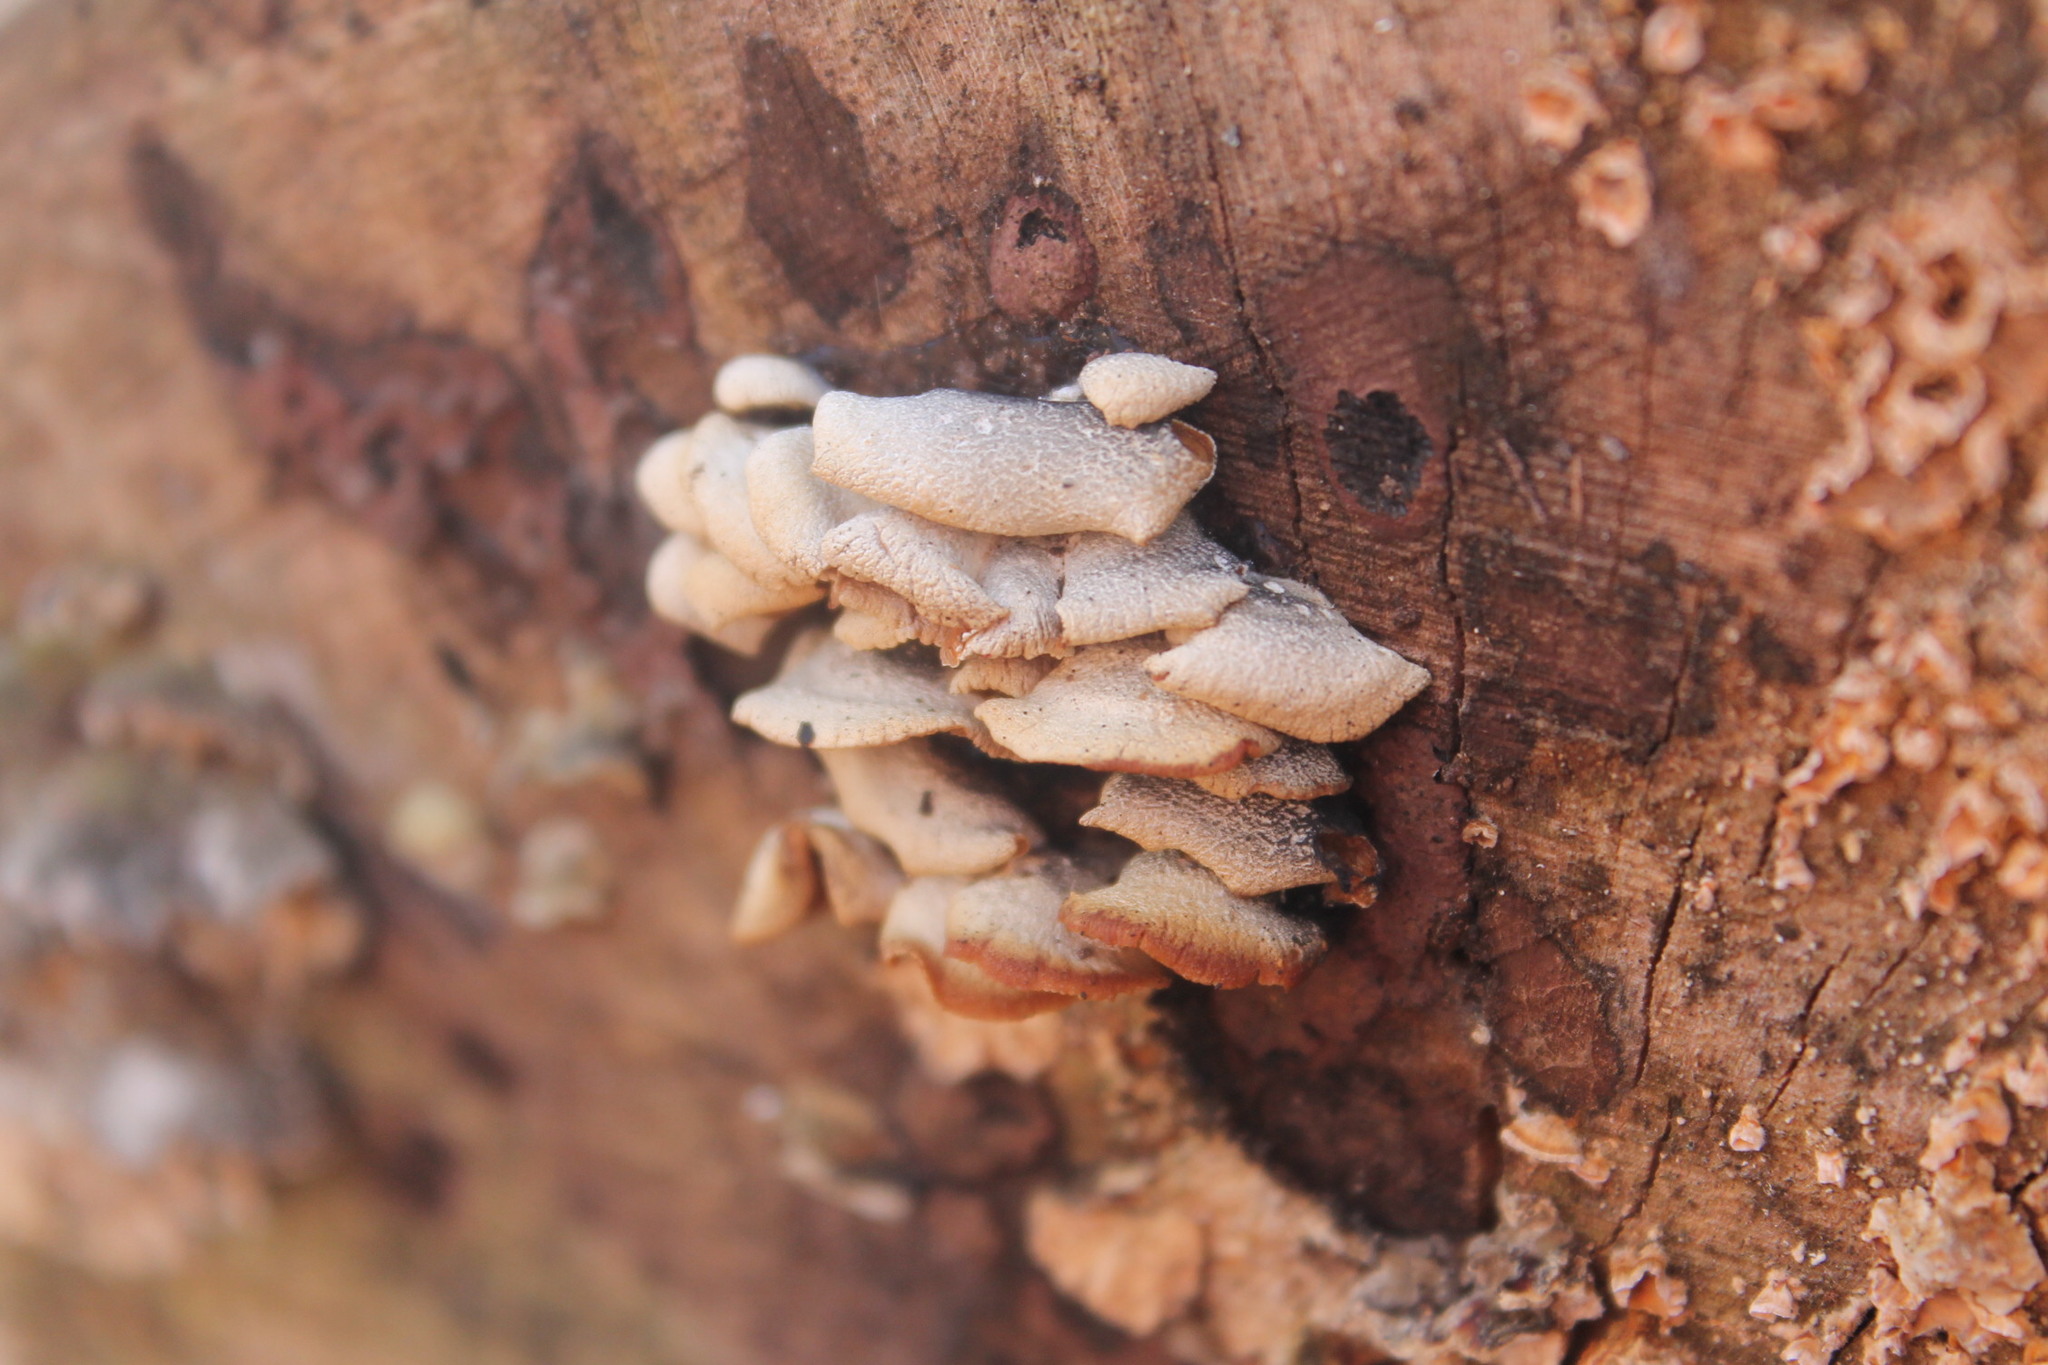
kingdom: Fungi
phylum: Basidiomycota
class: Agaricomycetes
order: Agaricales
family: Mycenaceae
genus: Panellus
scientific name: Panellus stipticus
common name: Bitter oysterling
